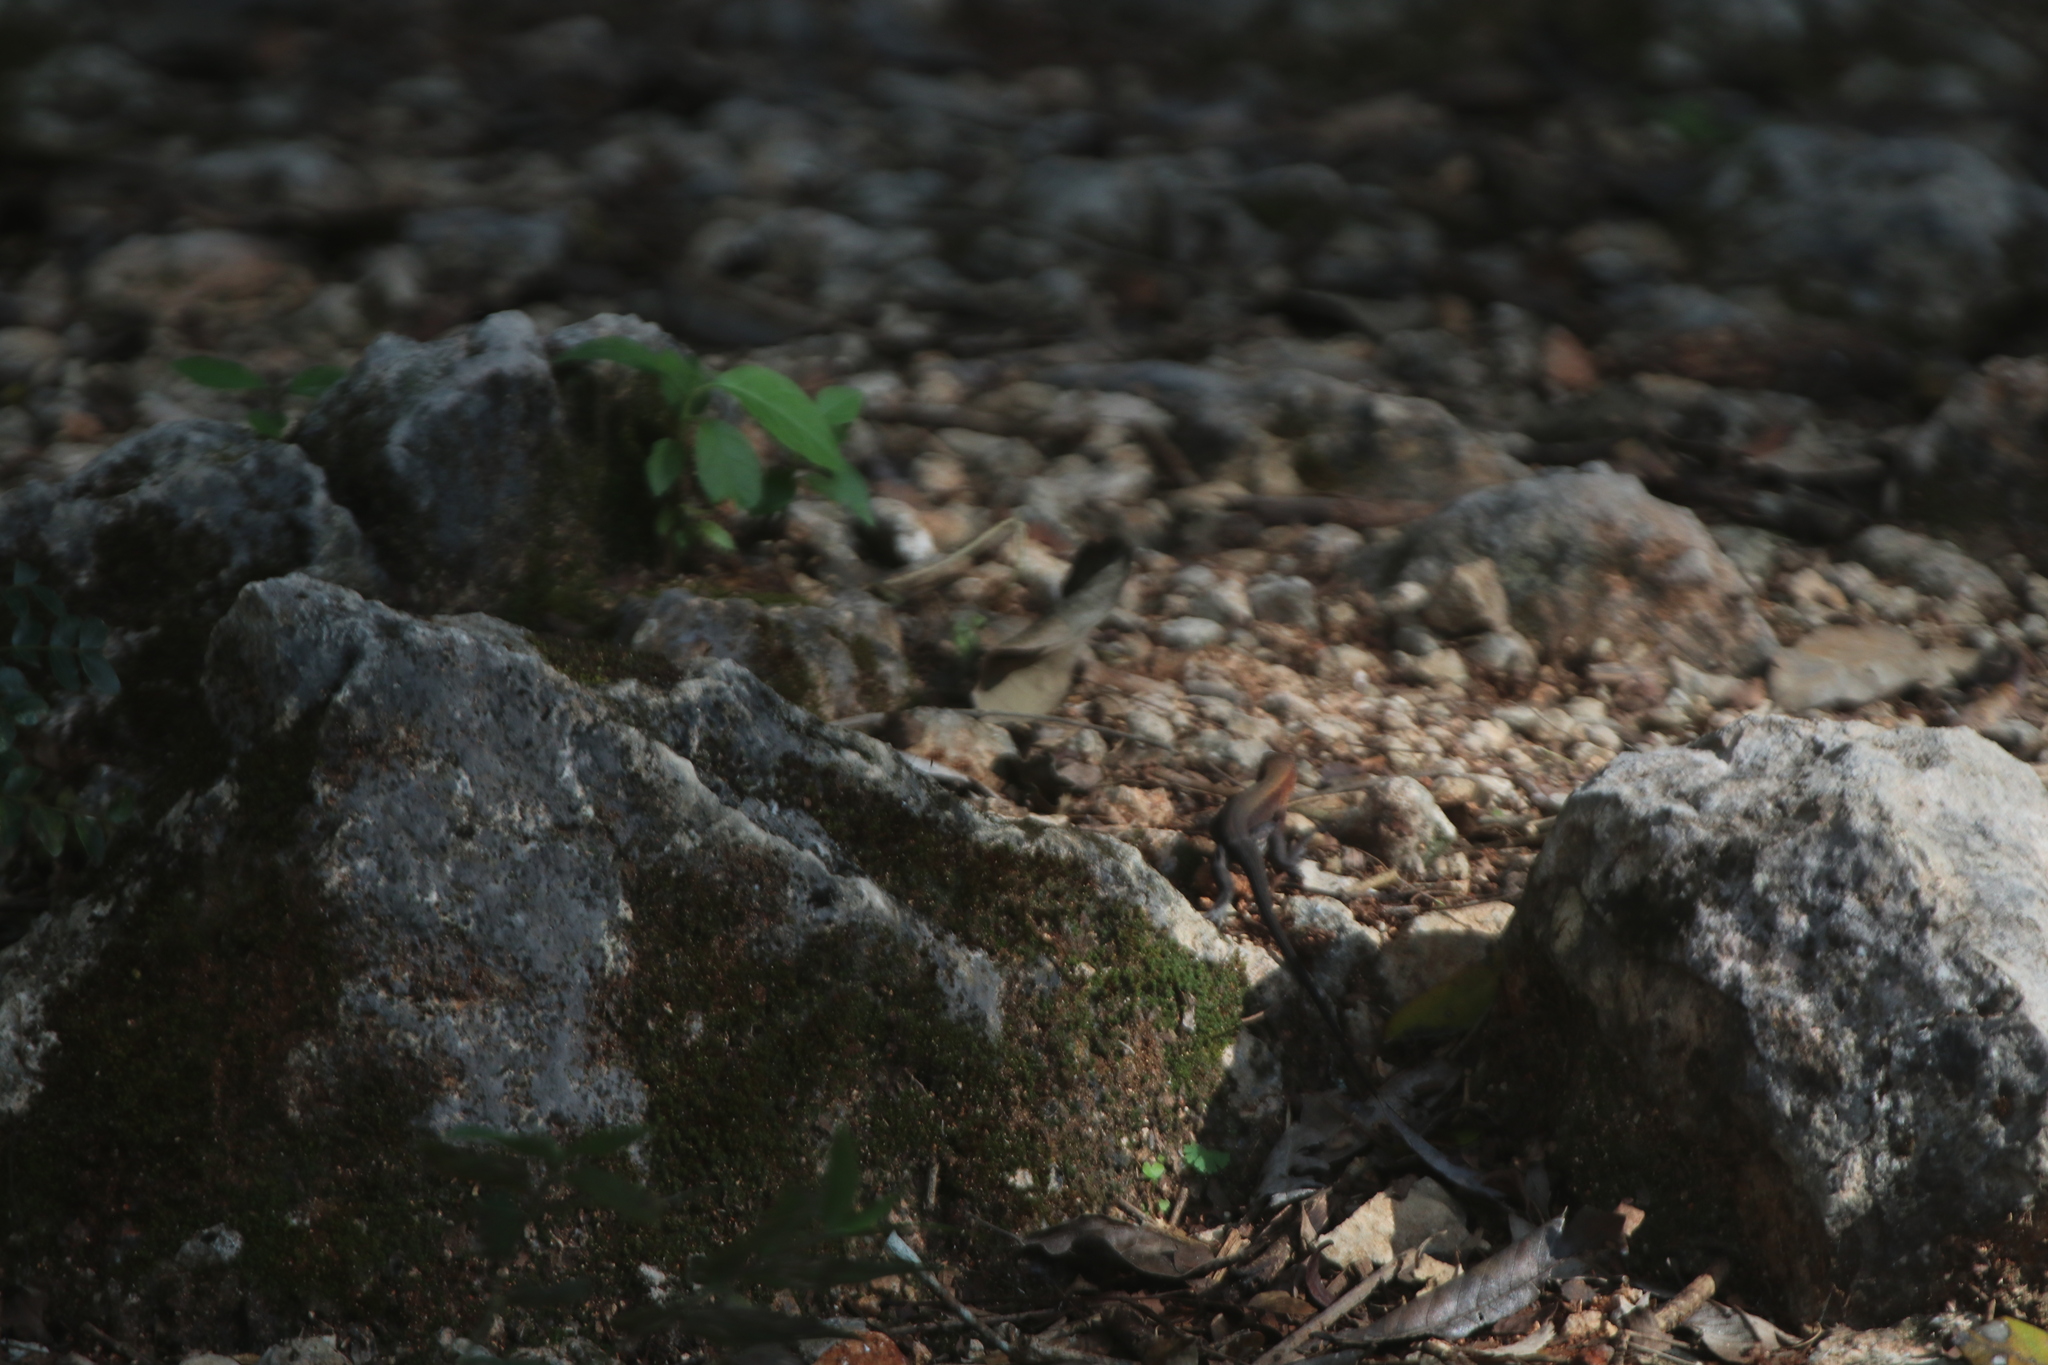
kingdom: Animalia
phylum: Chordata
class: Squamata
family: Teiidae
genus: Holcosus
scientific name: Holcosus gaigeae
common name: Rainbow ameiva
